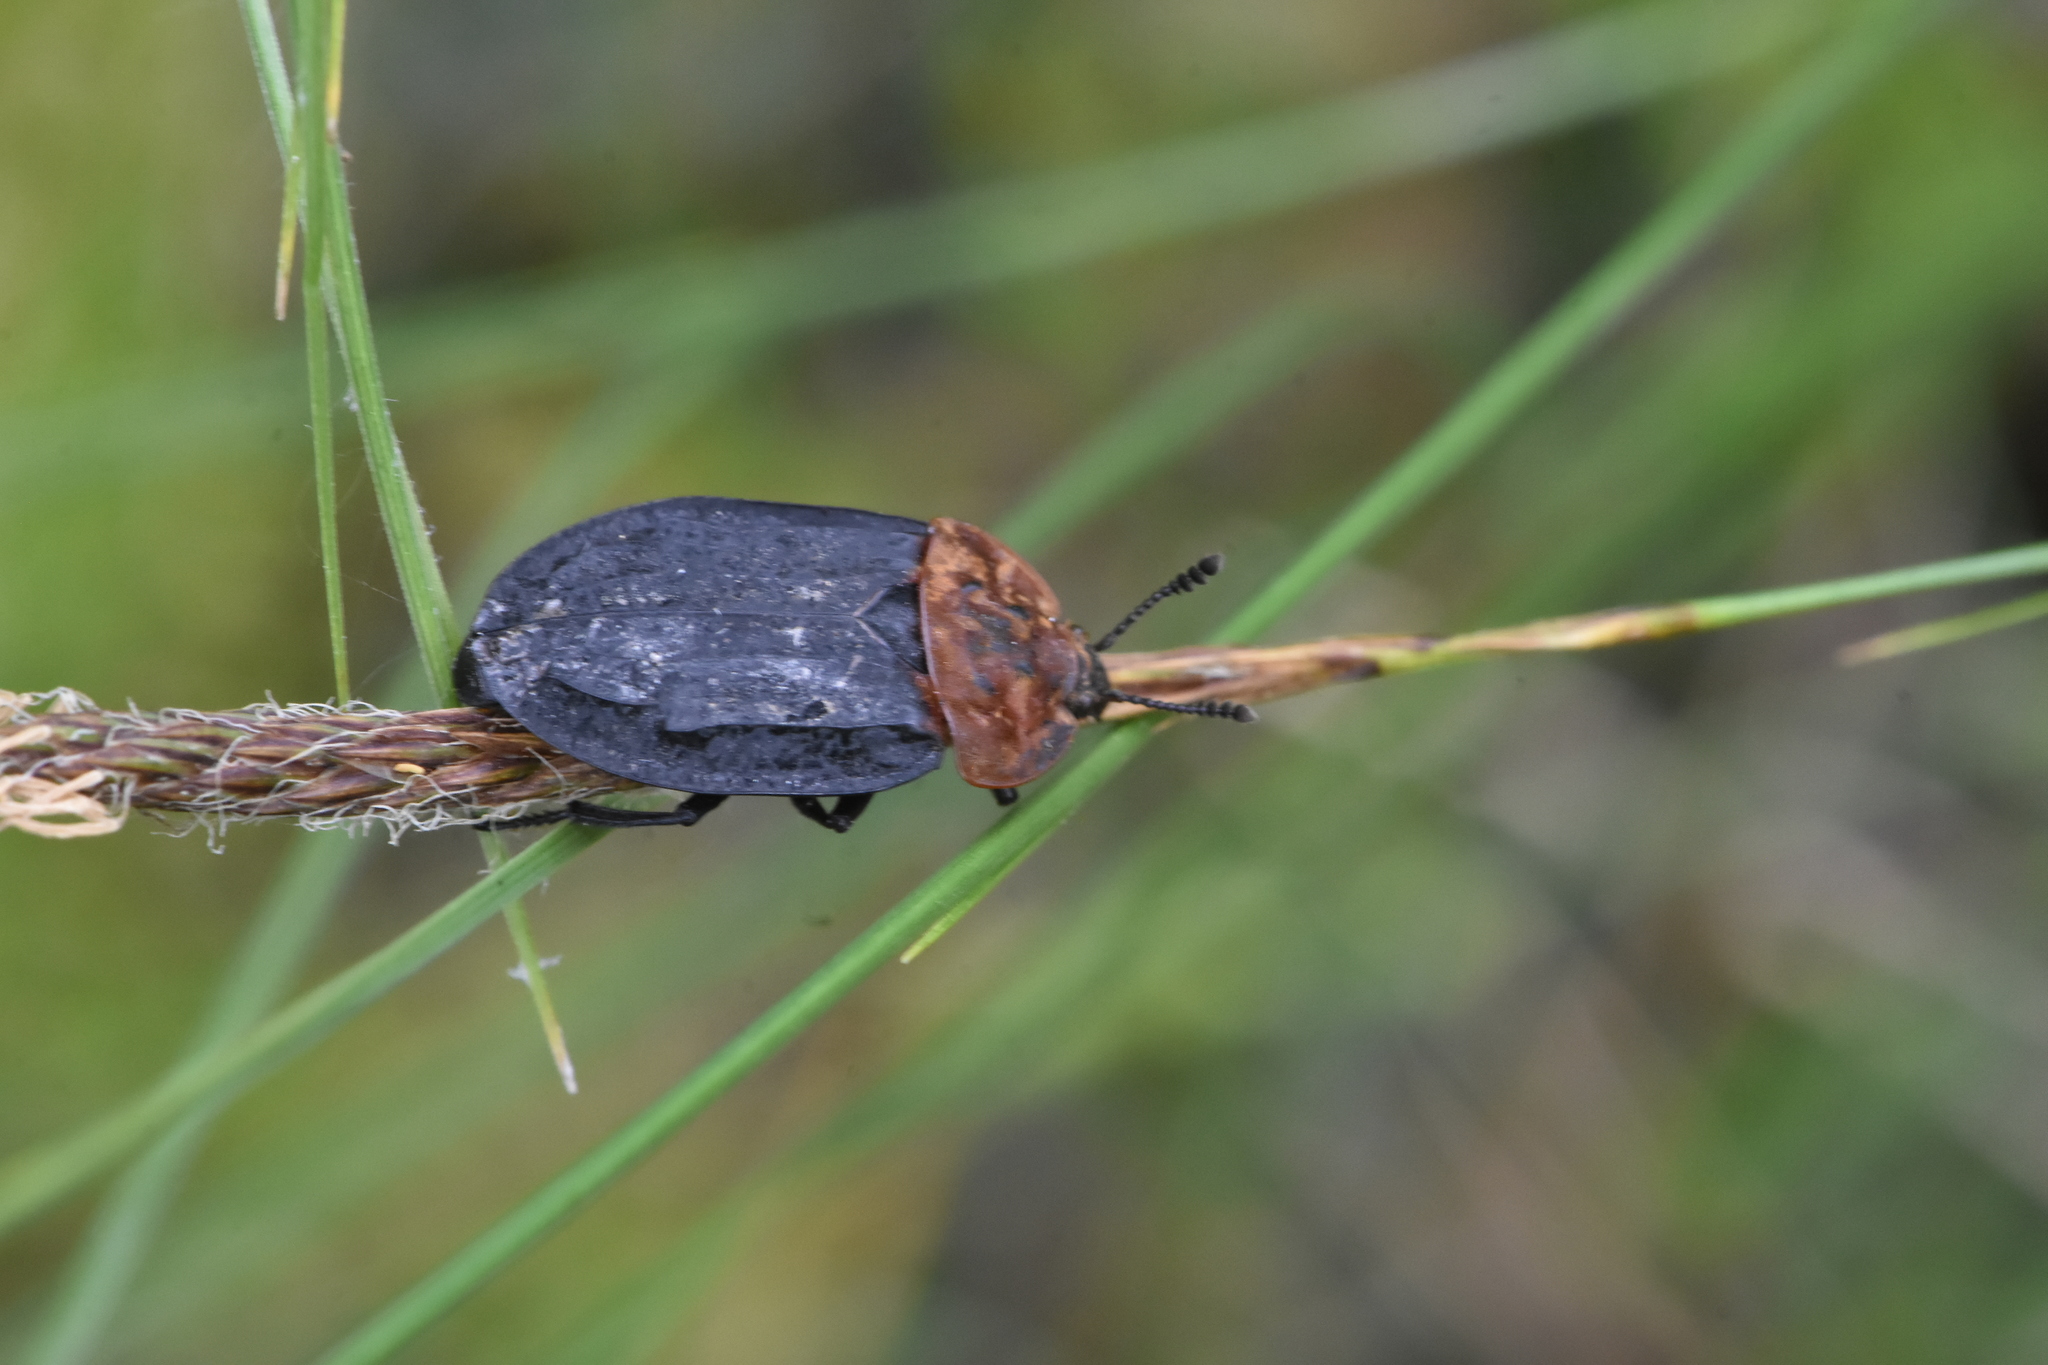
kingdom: Animalia
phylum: Arthropoda
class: Insecta
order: Coleoptera
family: Staphylinidae
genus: Oiceoptoma
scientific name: Oiceoptoma thoracicum
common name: Red-breasted carrion beetle
